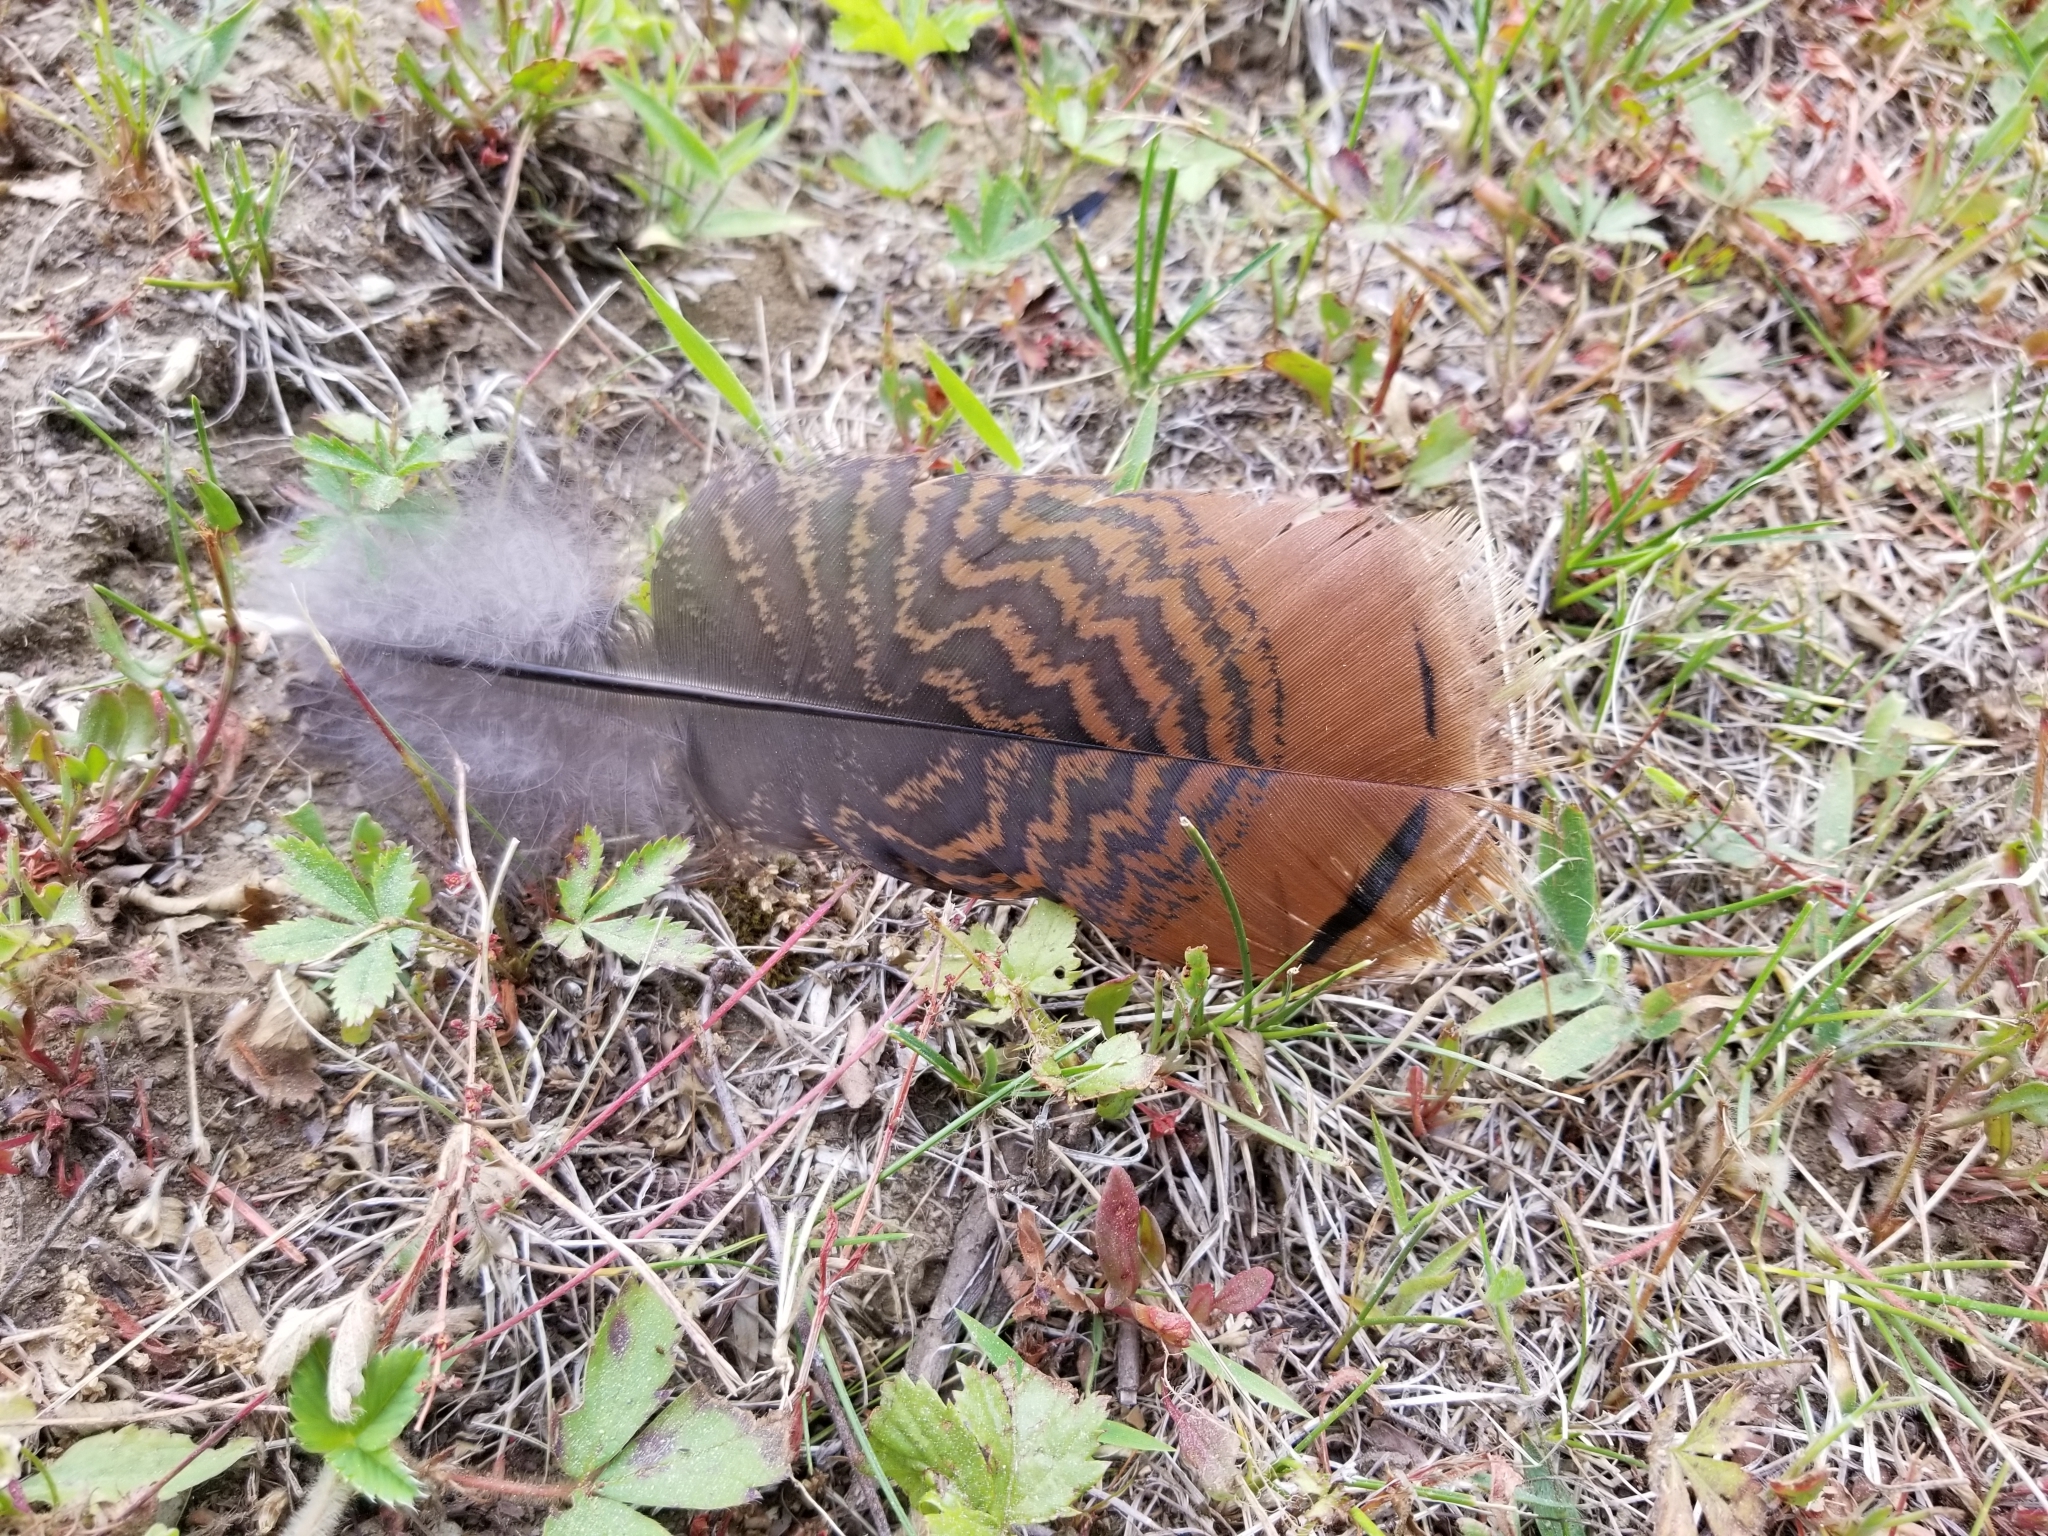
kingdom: Animalia
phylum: Chordata
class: Aves
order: Galliformes
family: Phasianidae
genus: Meleagris
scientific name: Meleagris gallopavo
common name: Wild turkey
